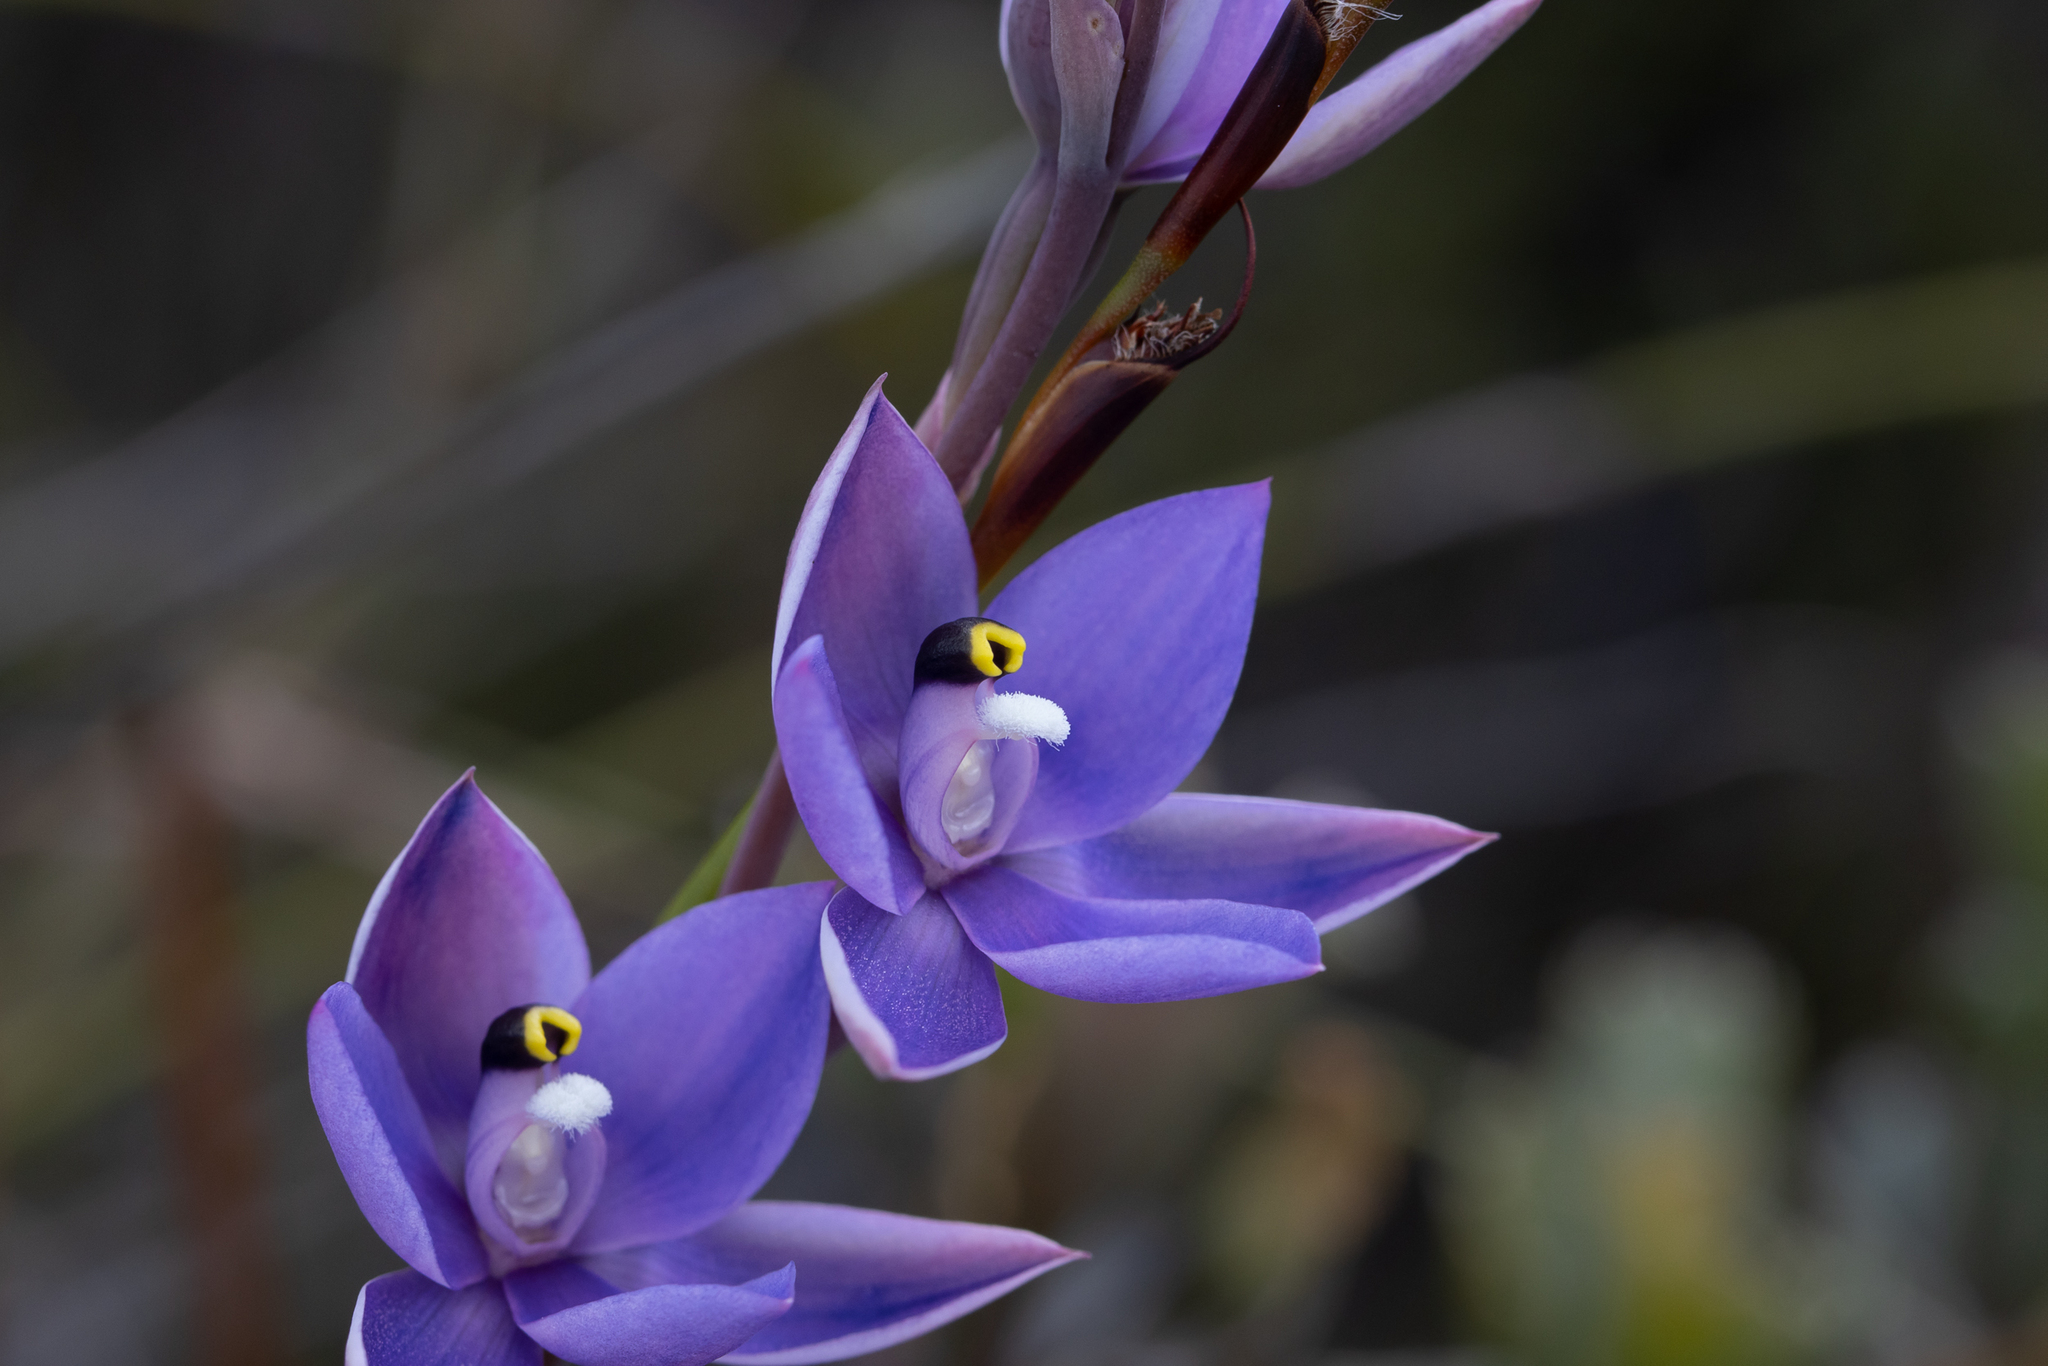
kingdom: Plantae
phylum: Tracheophyta
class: Liliopsida
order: Asparagales
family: Orchidaceae
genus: Thelymitra
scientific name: Thelymitra granitora
